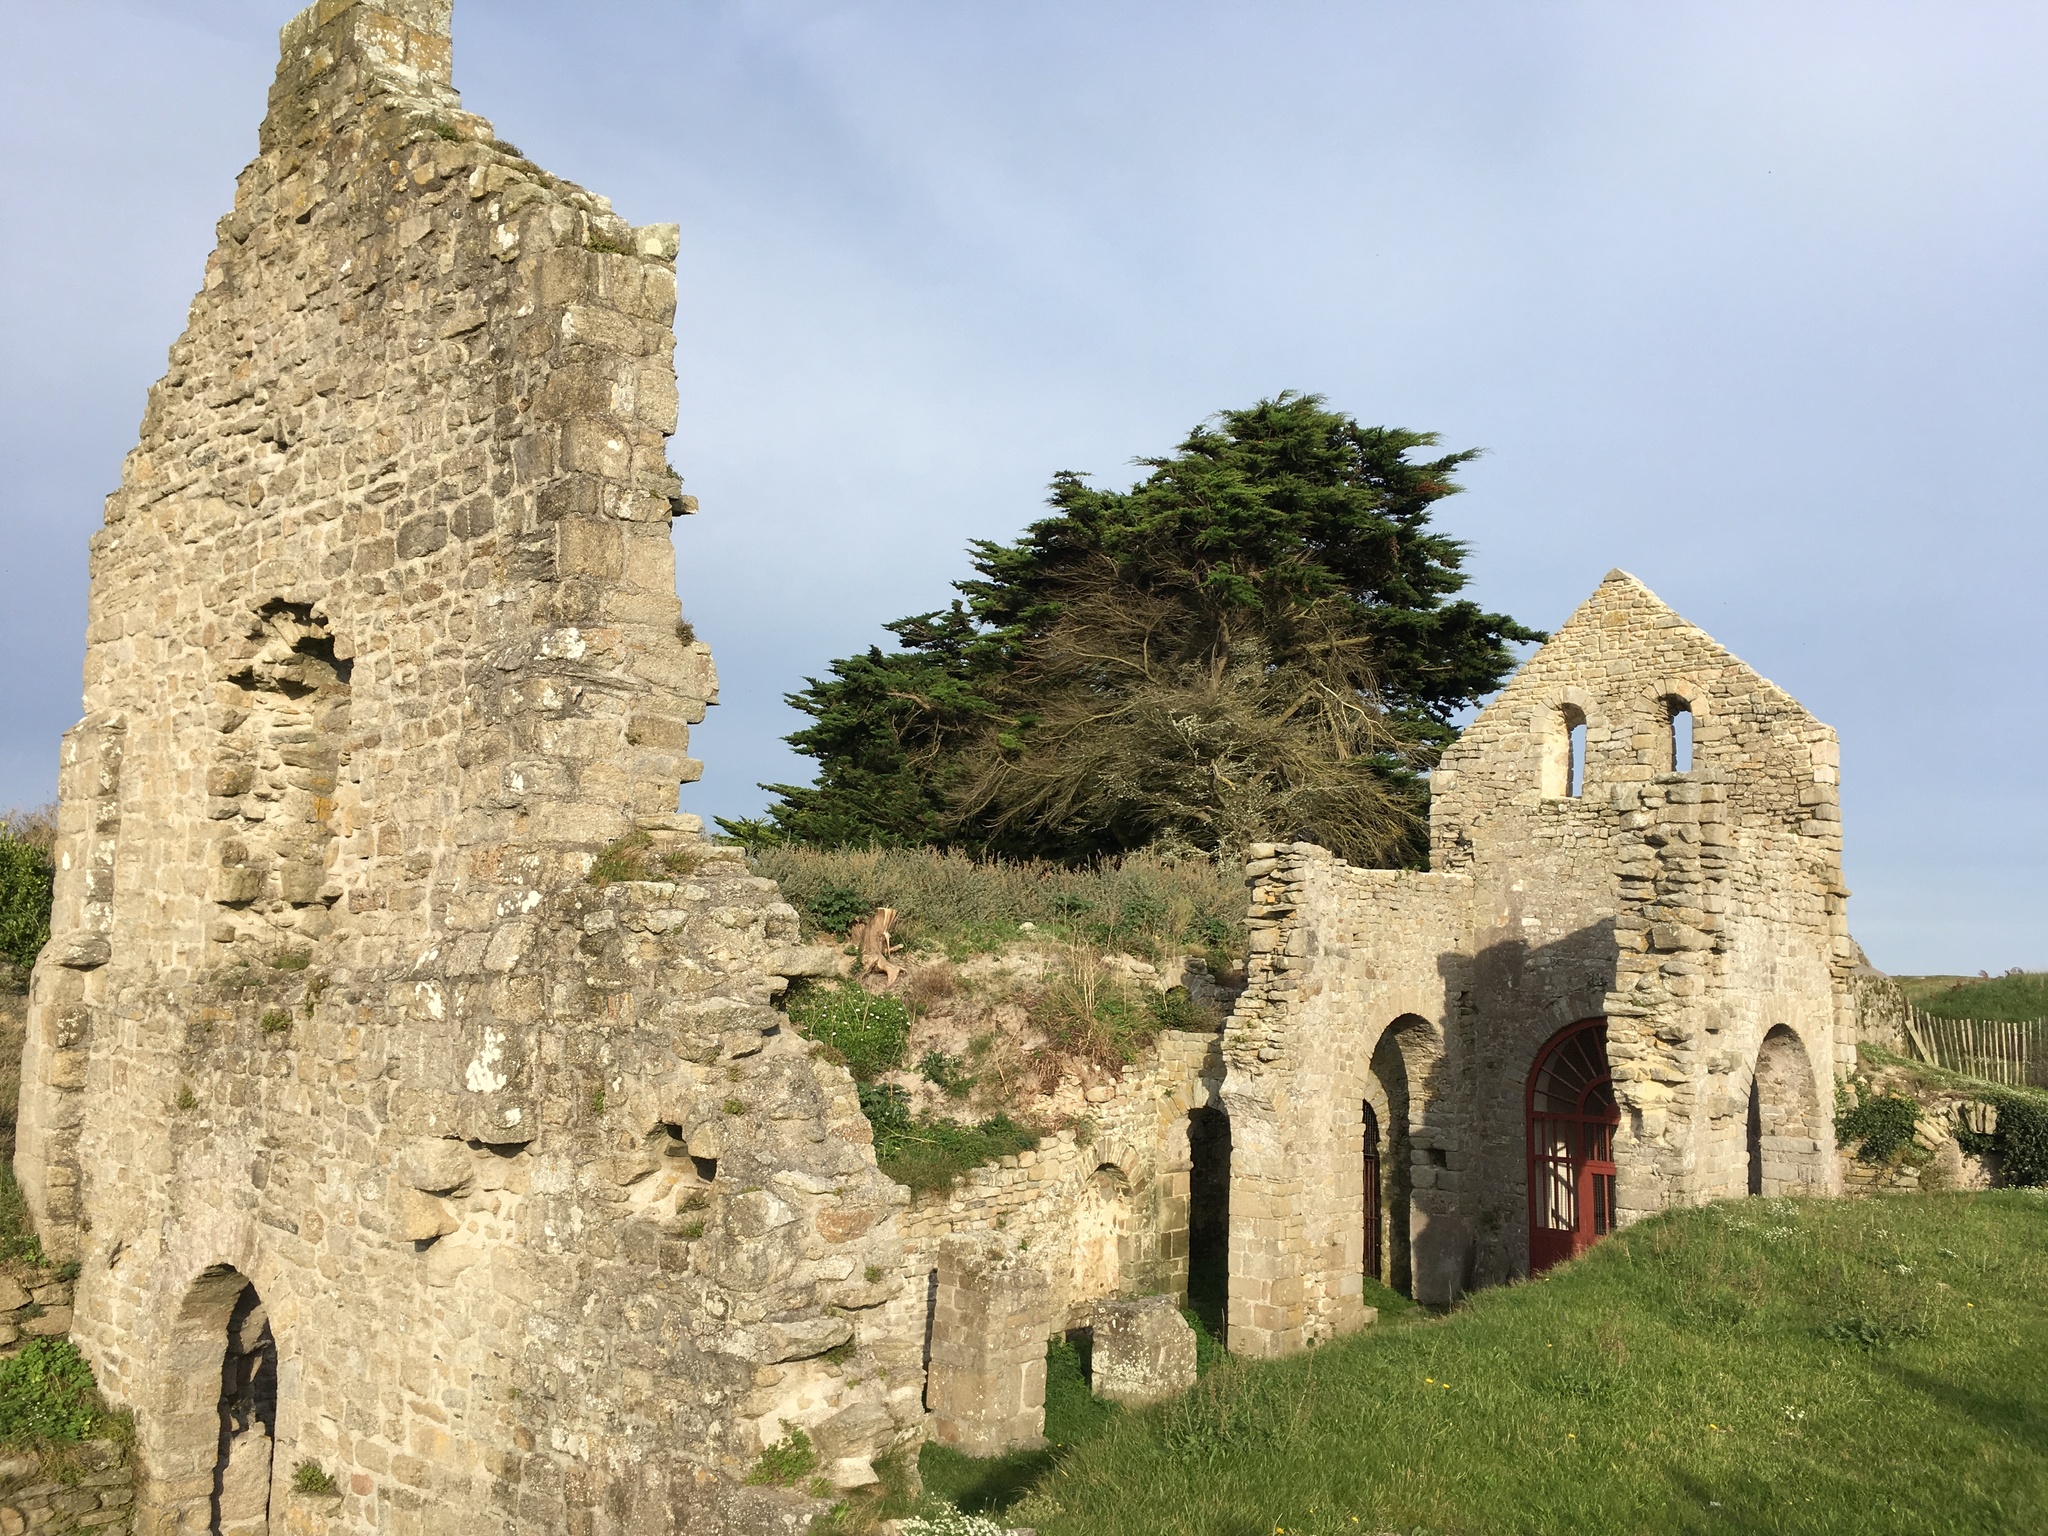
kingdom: Plantae
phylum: Tracheophyta
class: Pinopsida
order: Pinales
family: Cupressaceae
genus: Cupressus
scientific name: Cupressus macrocarpa
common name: Monterey cypress
